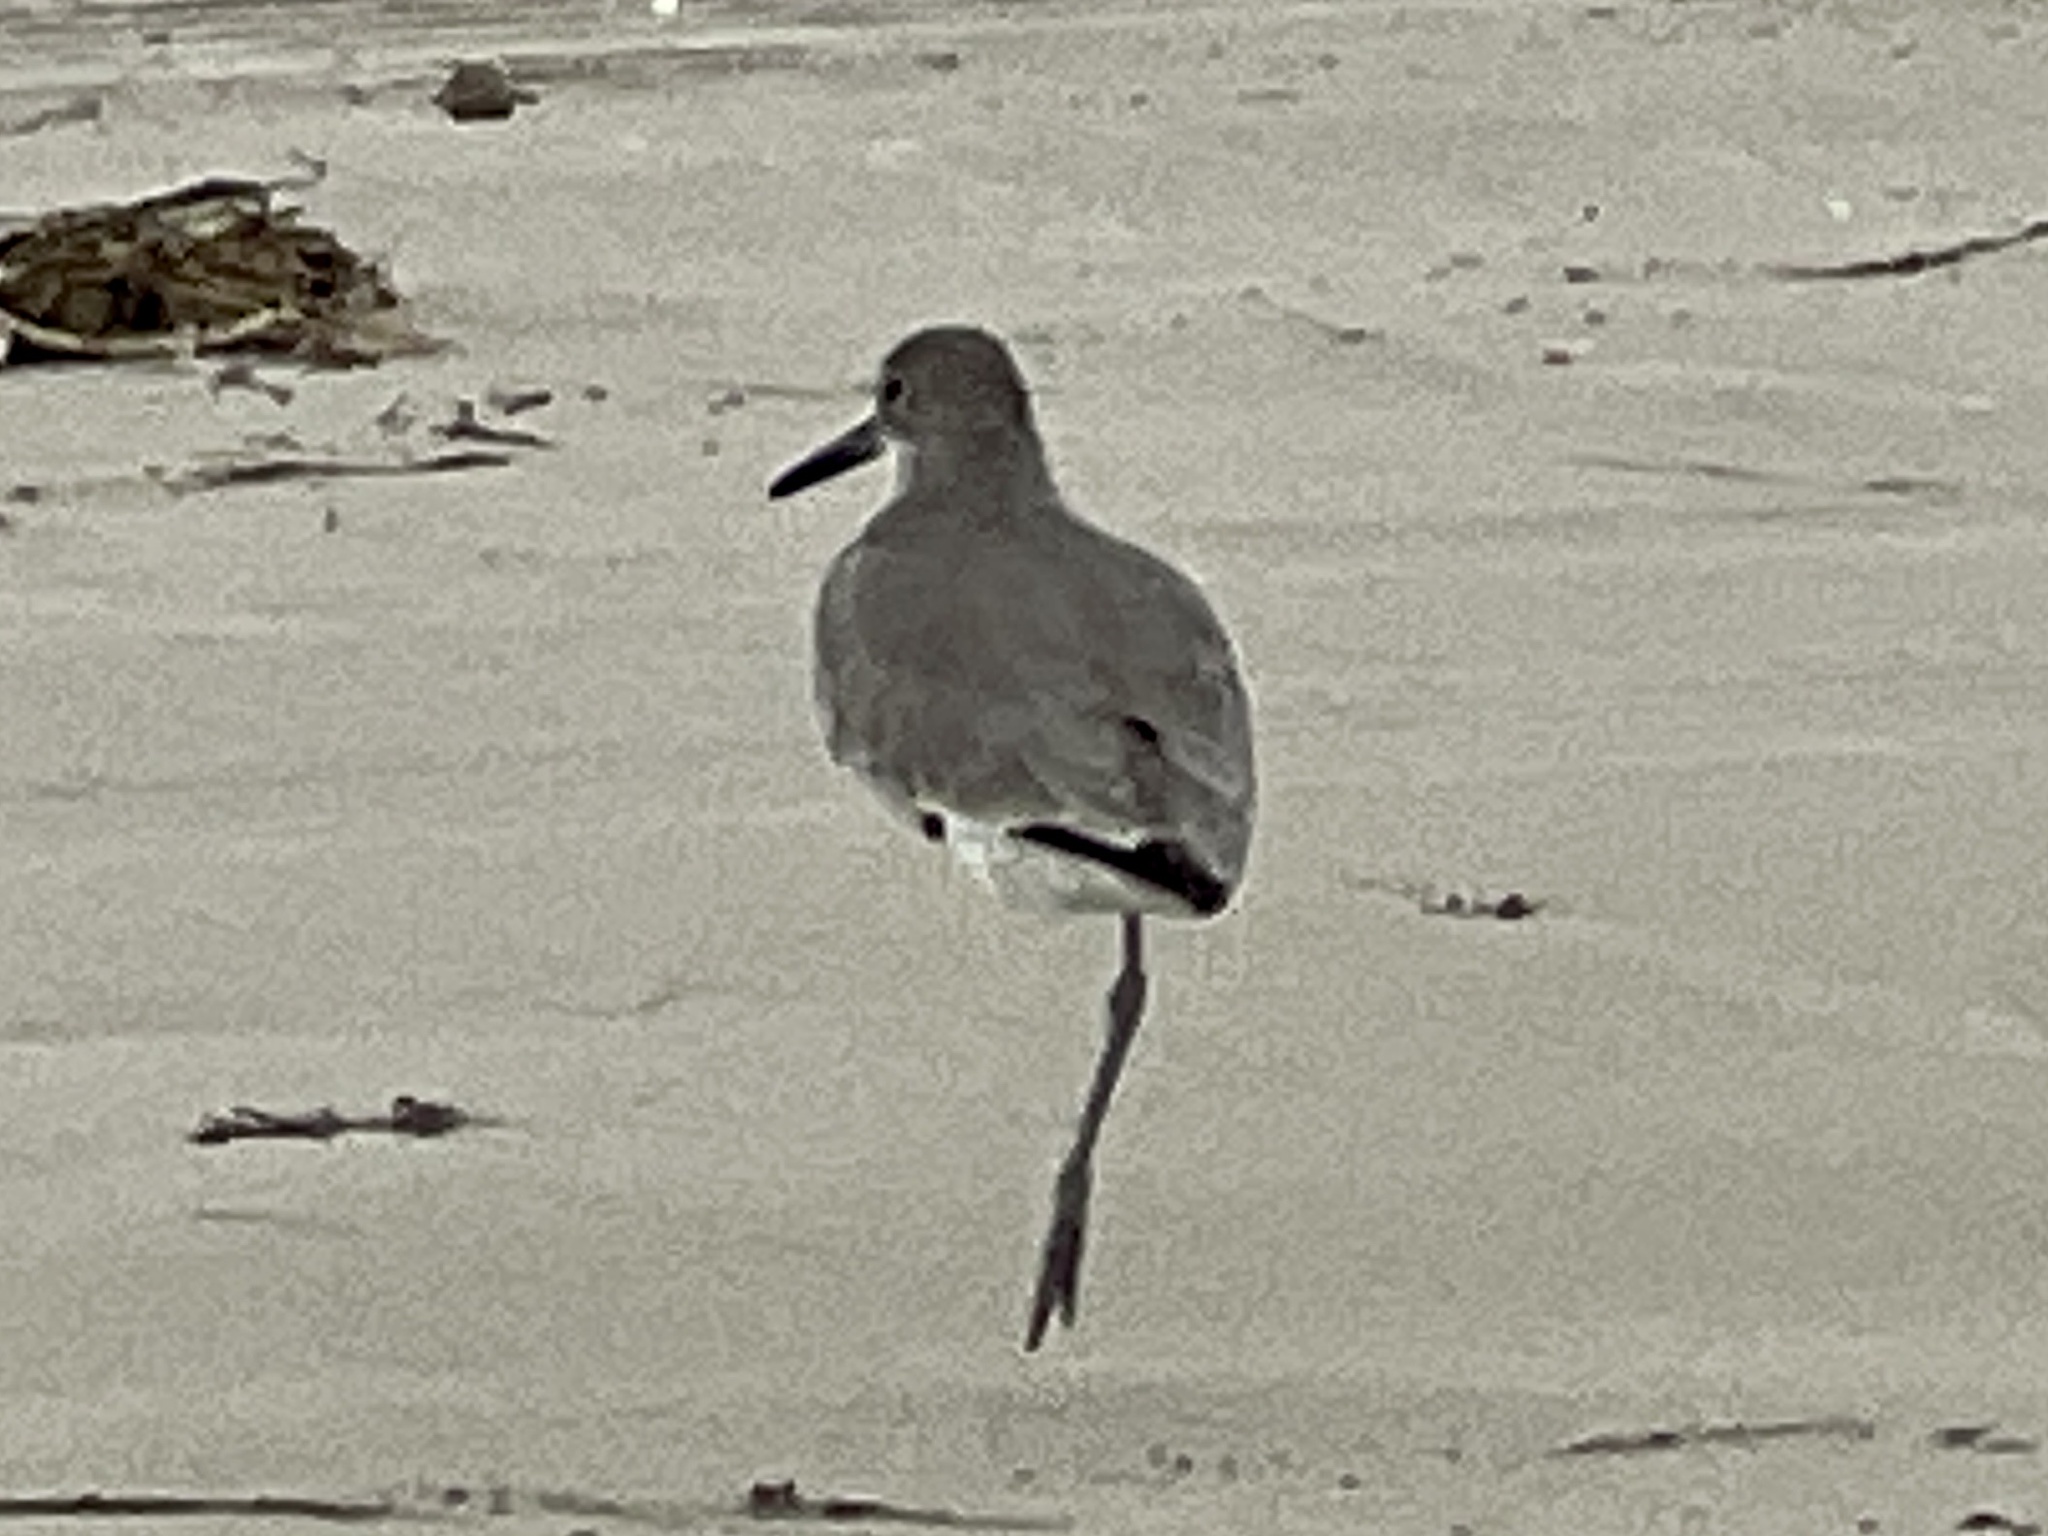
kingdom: Animalia
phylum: Chordata
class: Aves
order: Charadriiformes
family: Scolopacidae
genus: Tringa
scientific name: Tringa semipalmata
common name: Willet
